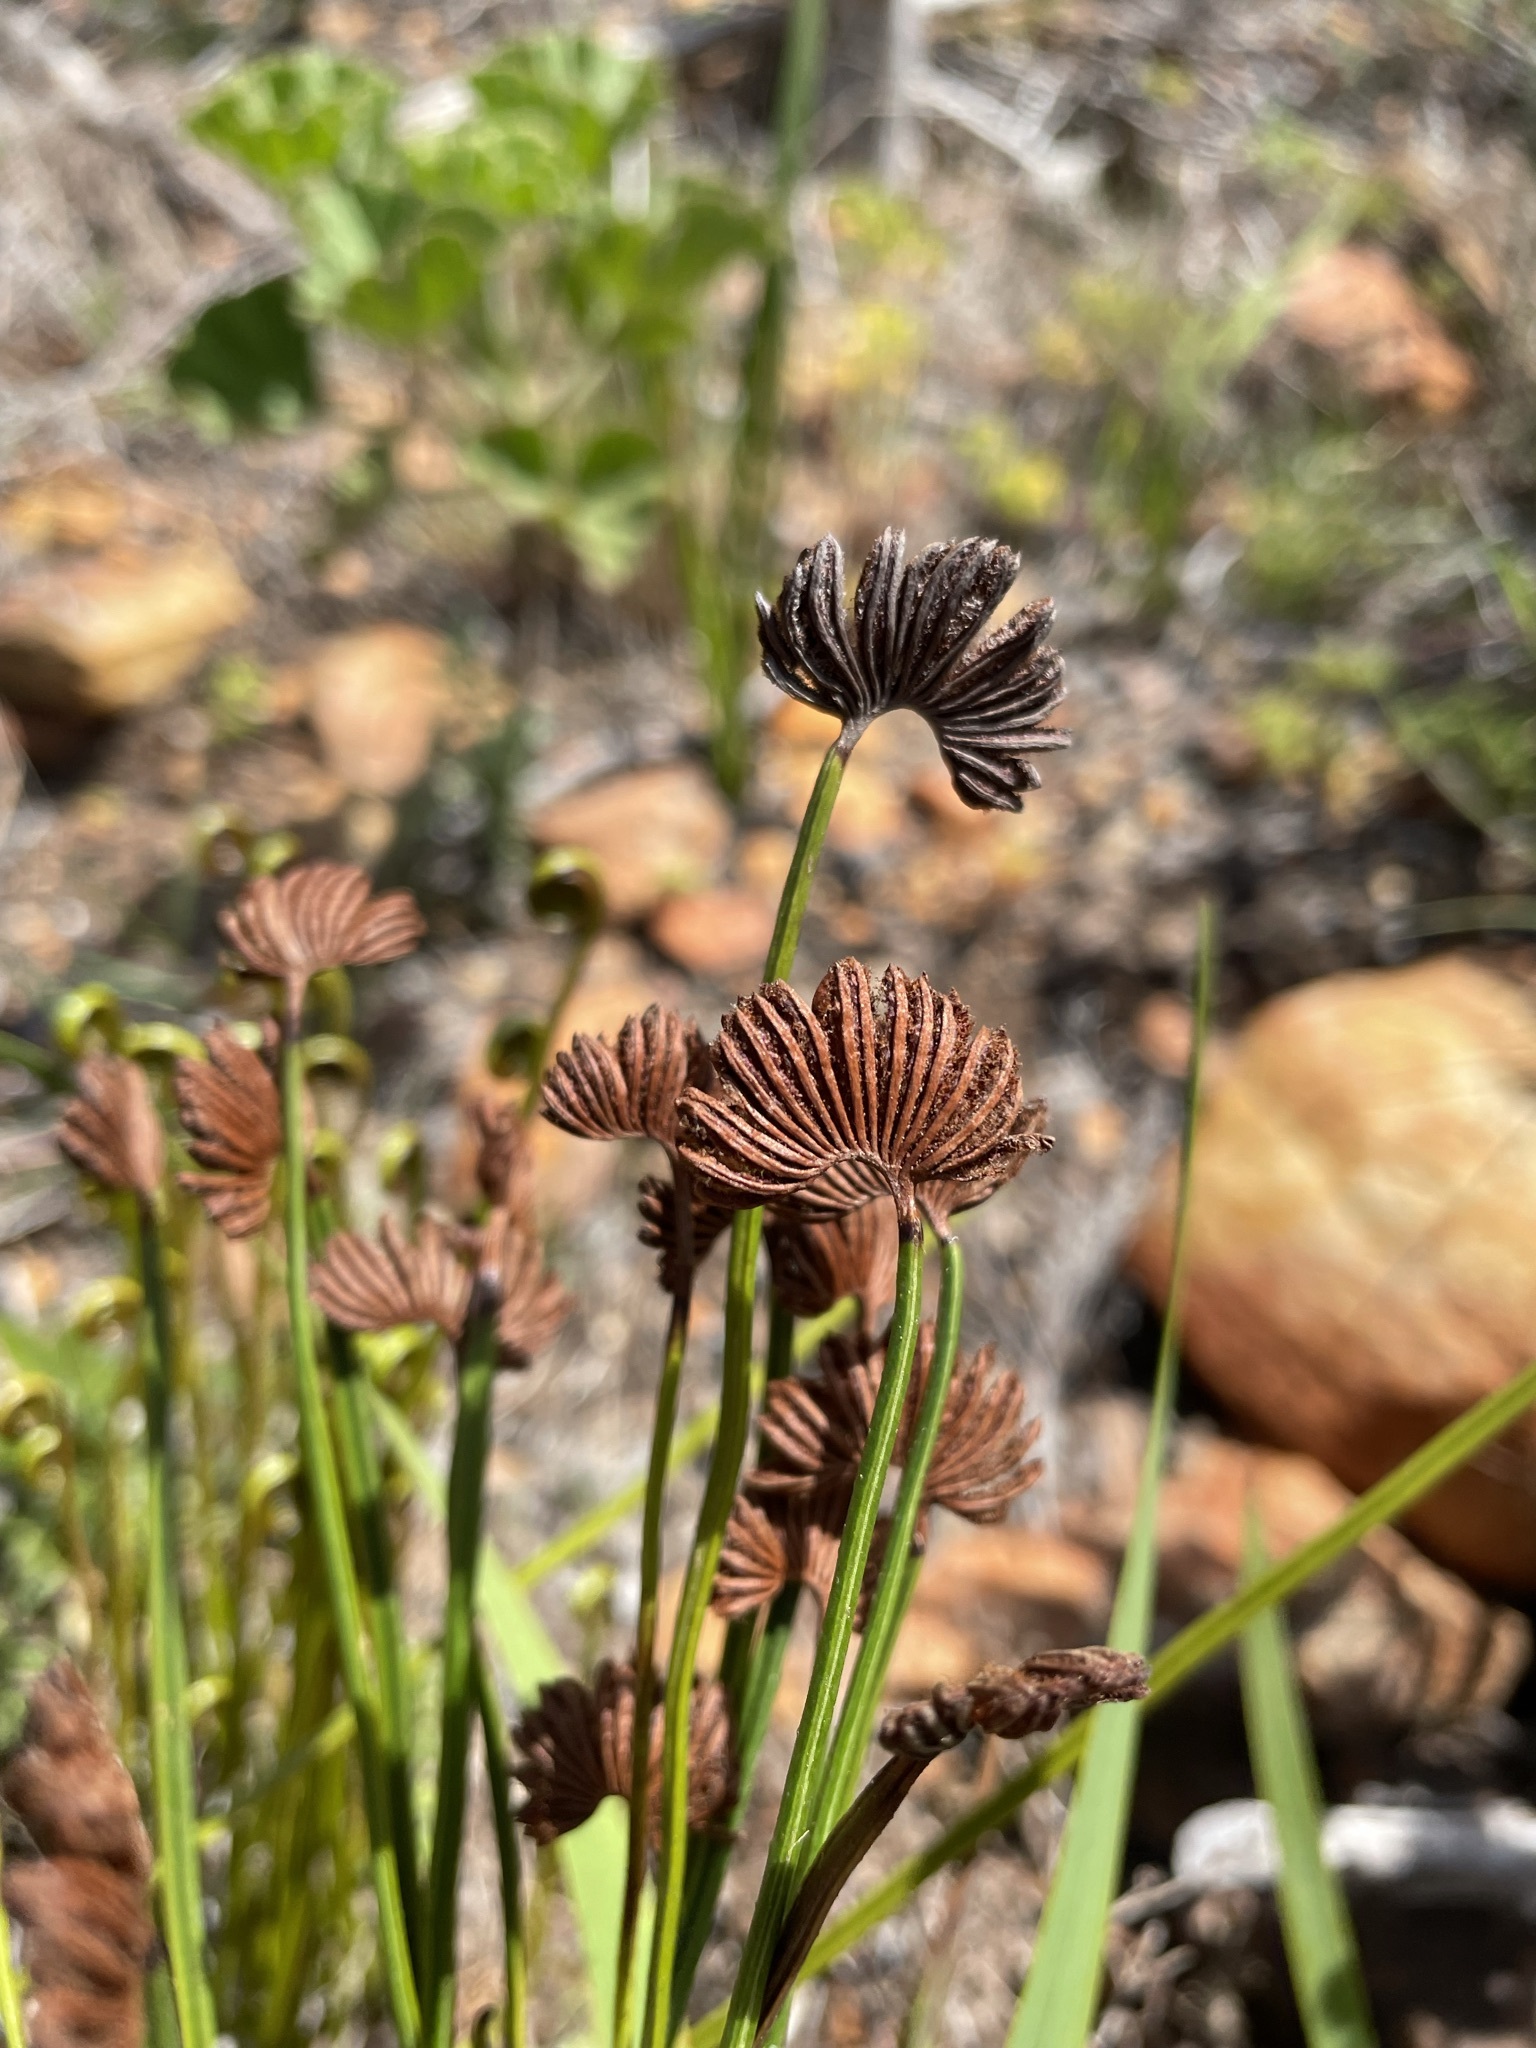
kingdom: Plantae
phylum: Tracheophyta
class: Polypodiopsida
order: Schizaeales
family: Schizaeaceae
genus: Schizaea
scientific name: Schizaea pectinata
